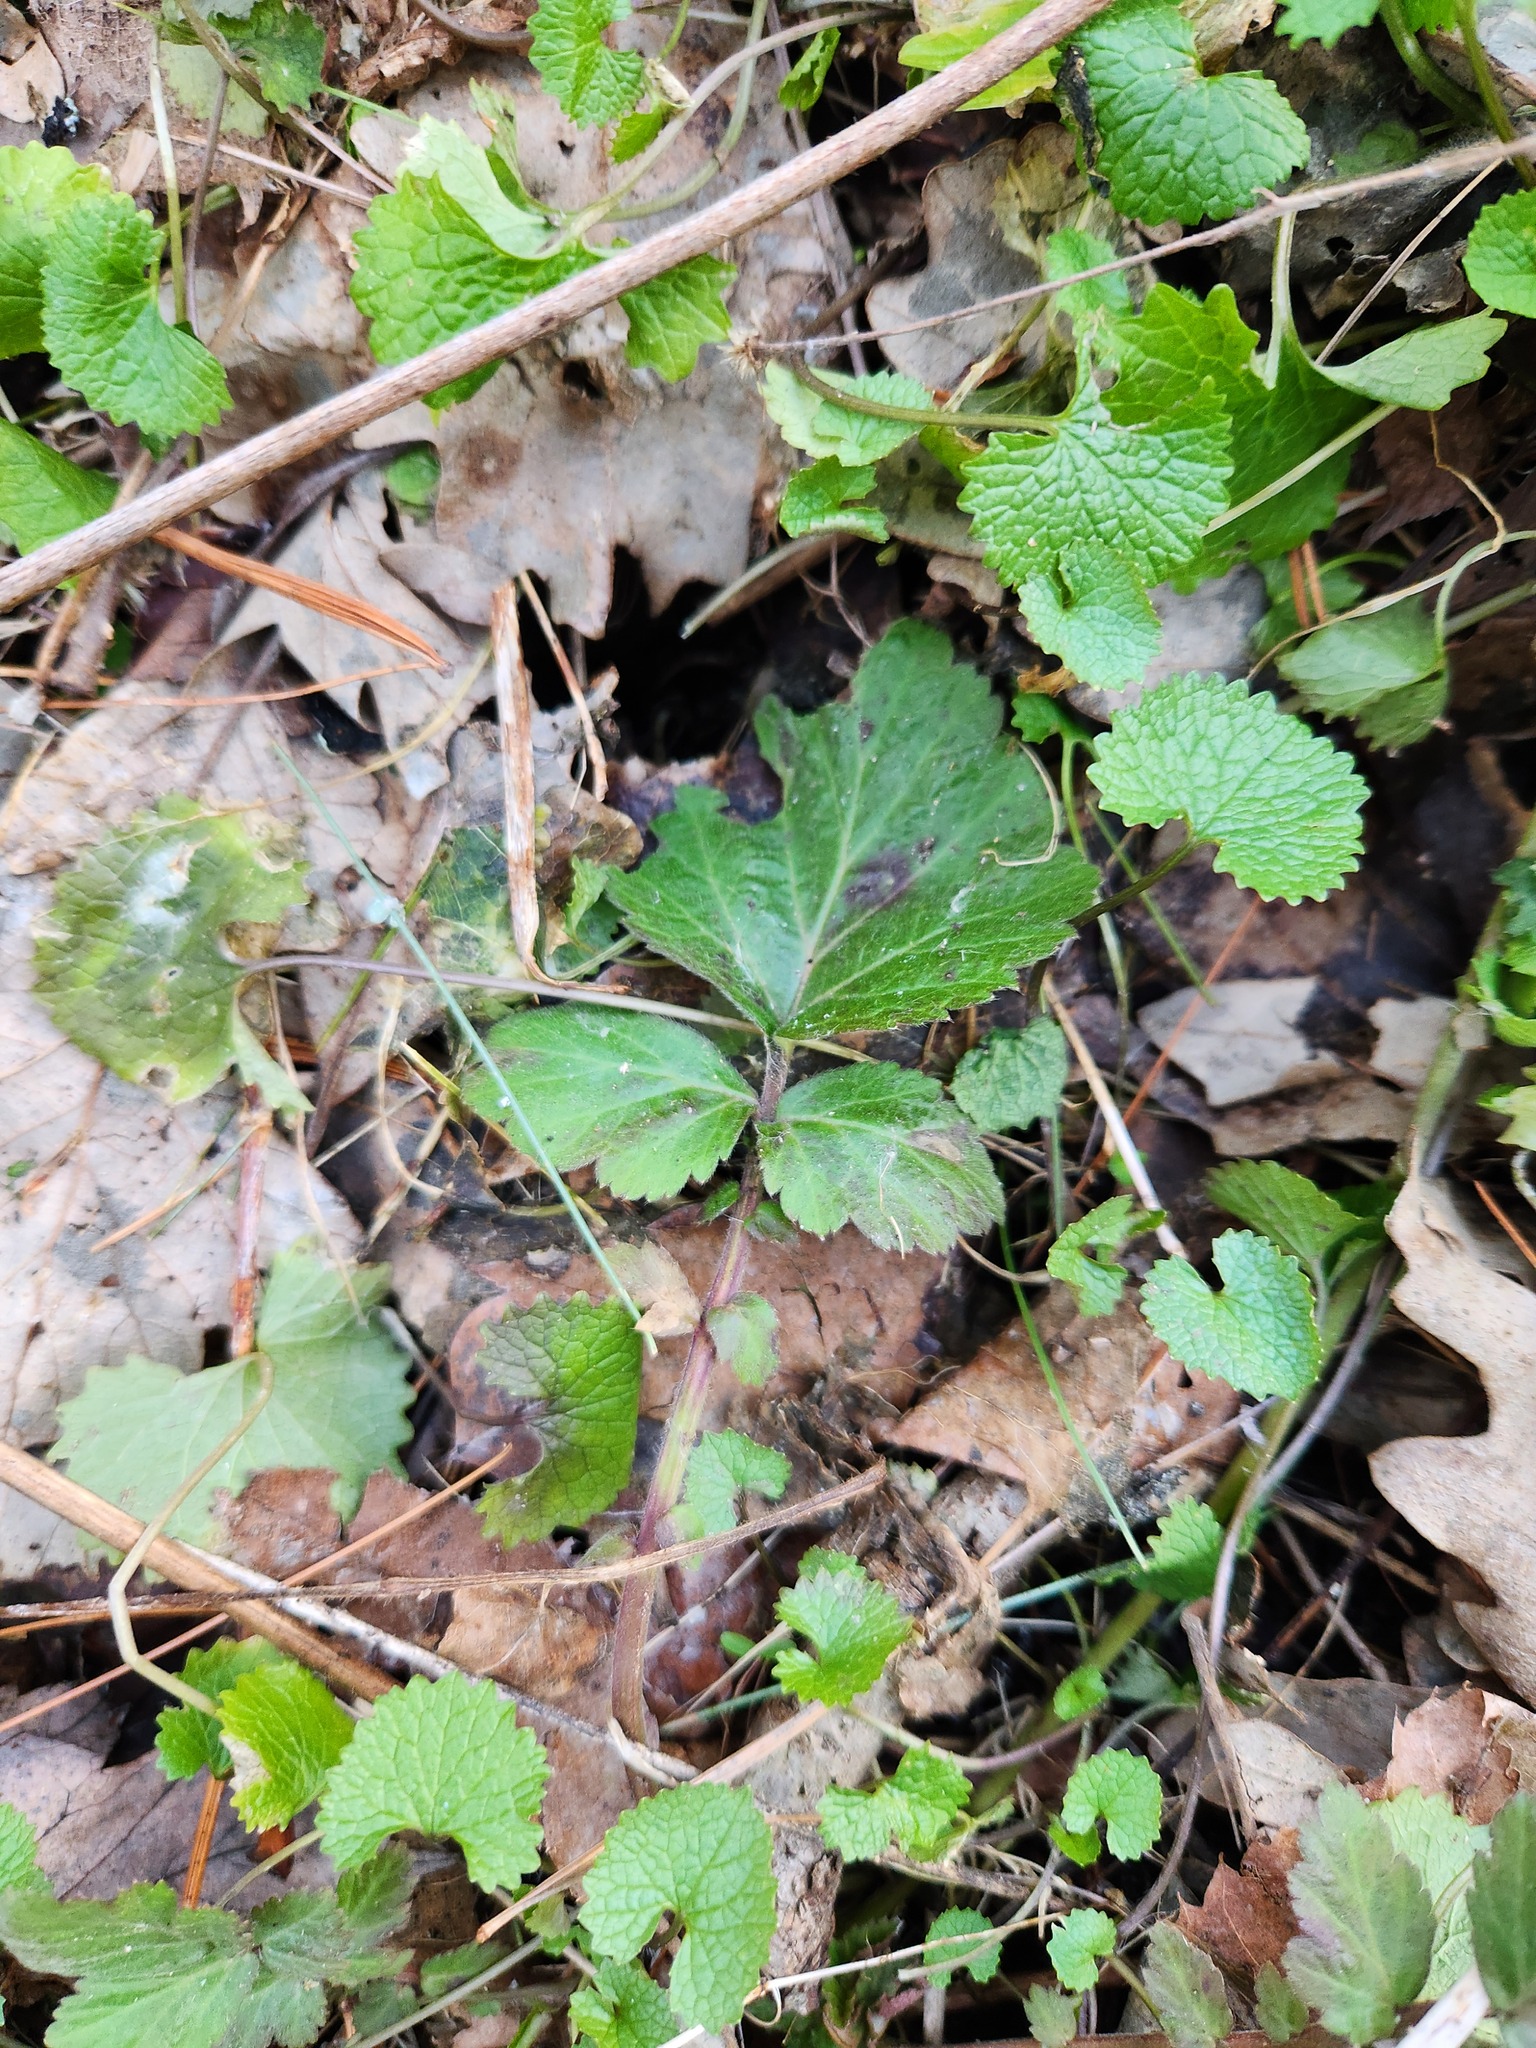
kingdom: Plantae
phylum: Tracheophyta
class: Magnoliopsida
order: Rosales
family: Rosaceae
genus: Geum
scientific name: Geum urbanum
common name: Wood avens
